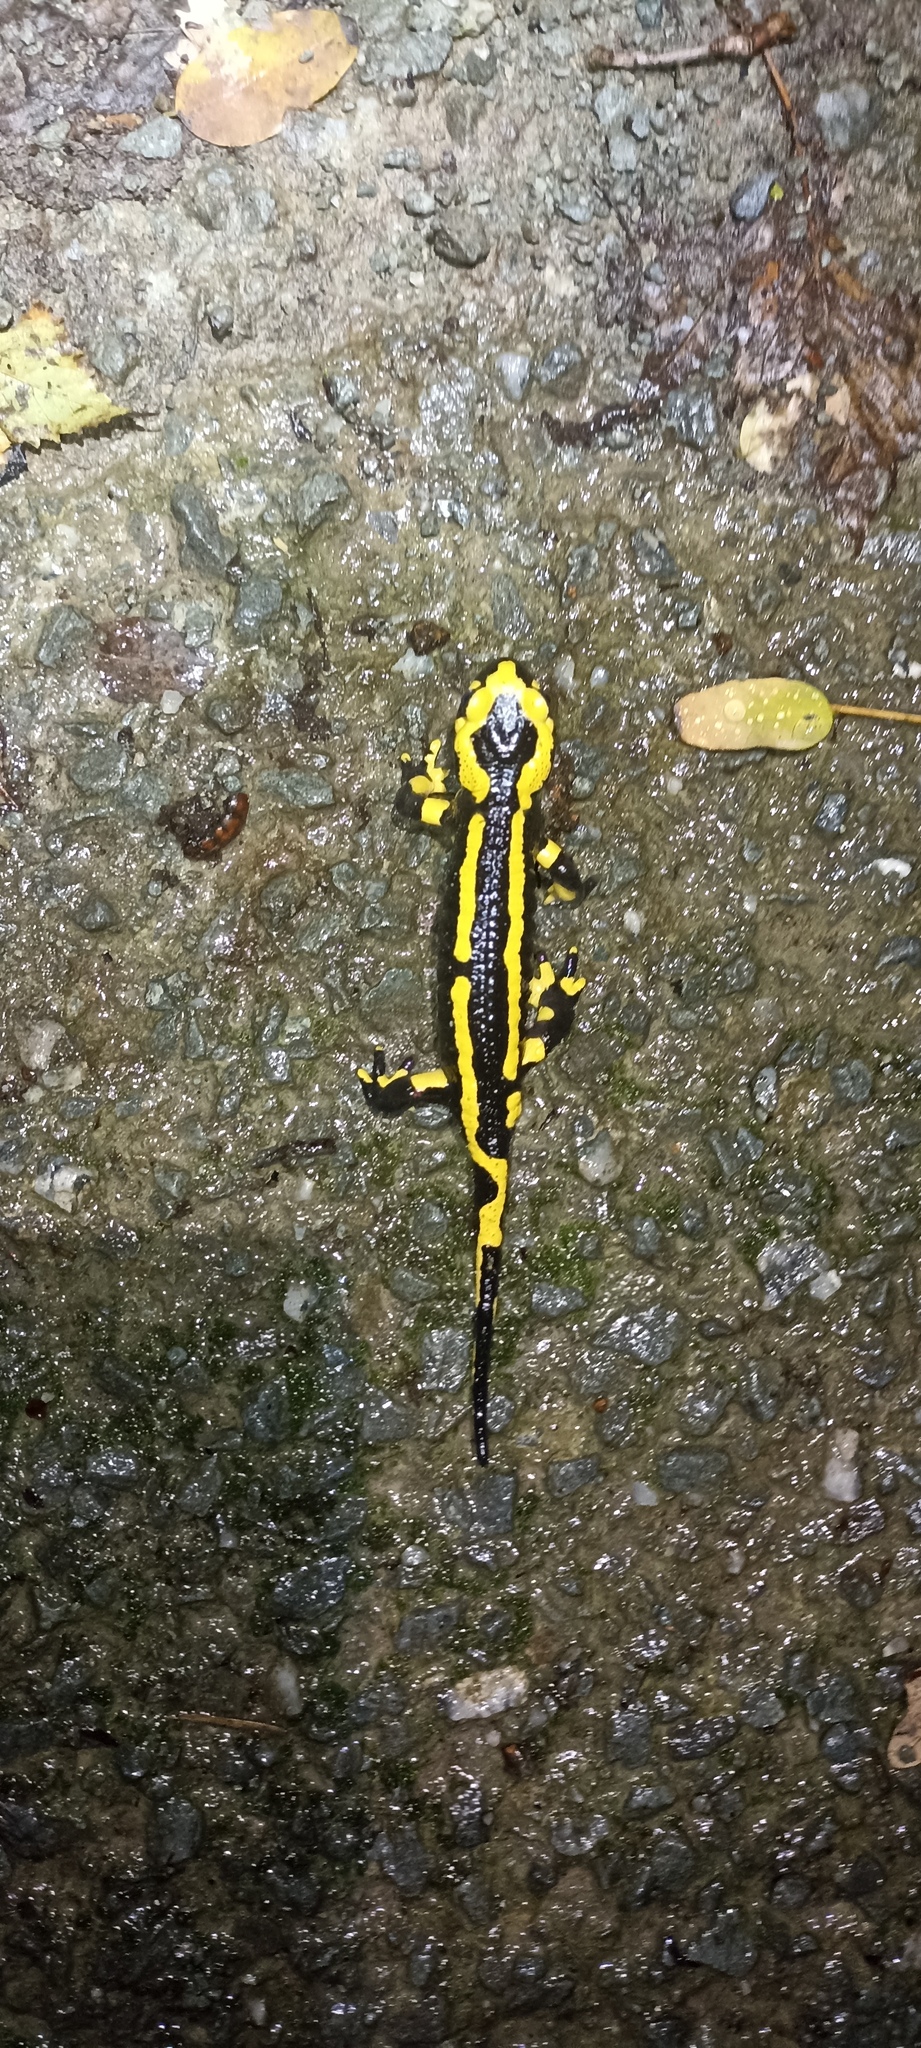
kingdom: Animalia
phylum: Chordata
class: Amphibia
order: Caudata
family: Salamandridae
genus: Salamandra
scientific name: Salamandra salamandra
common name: Fire salamander
